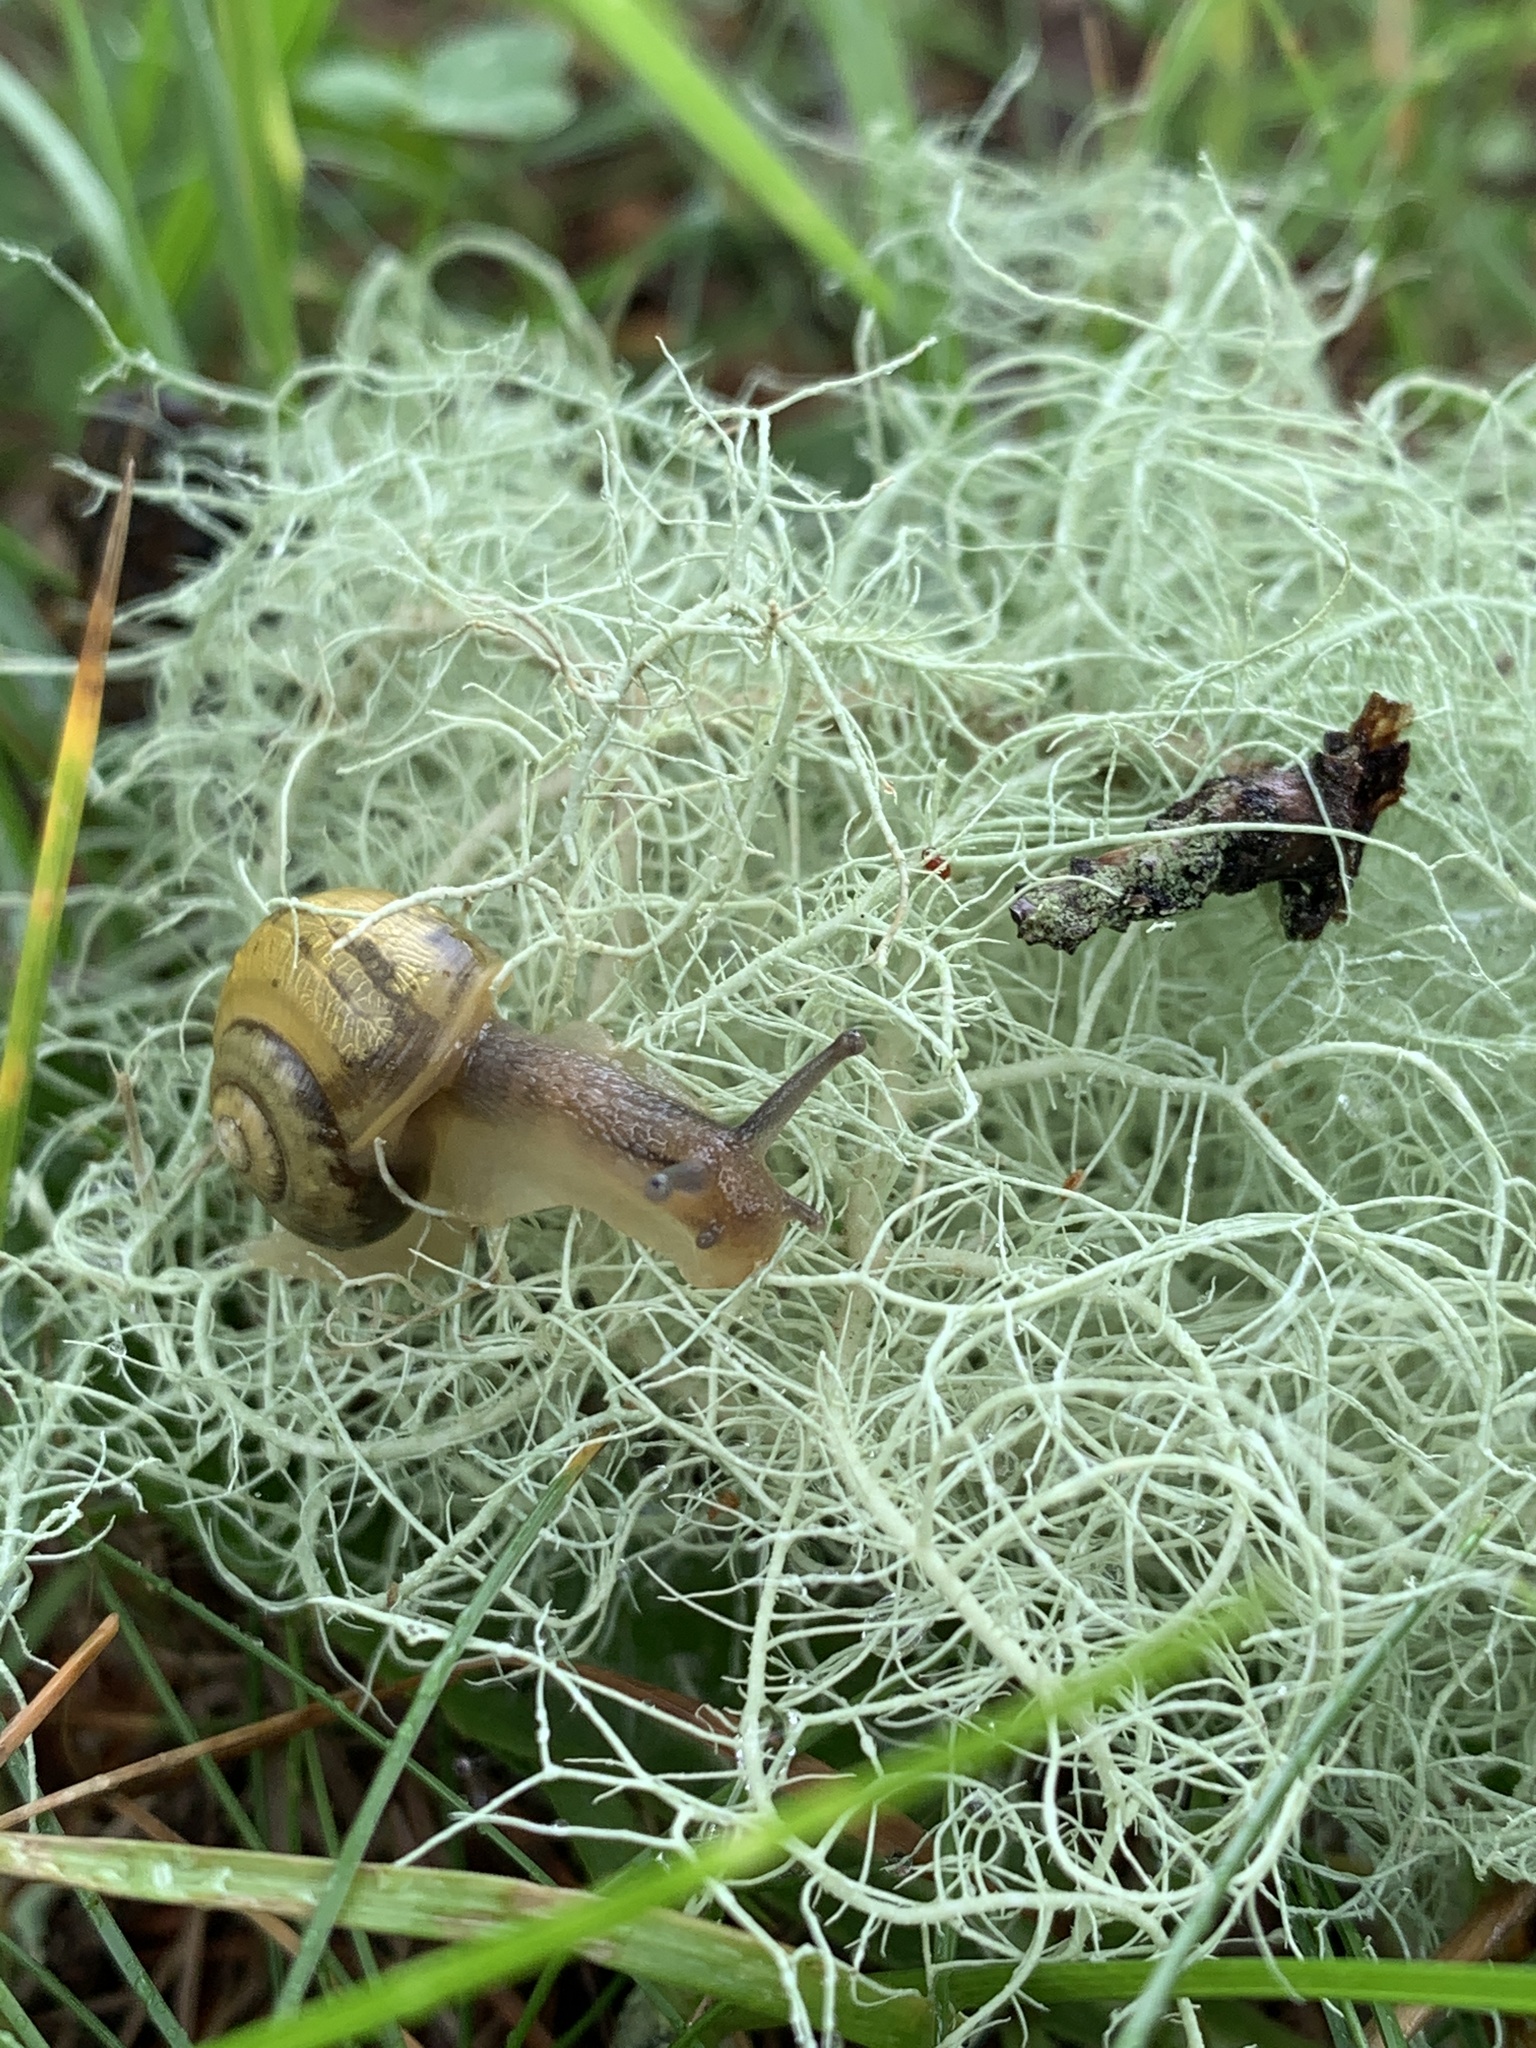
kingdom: Animalia
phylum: Mollusca
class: Gastropoda
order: Stylommatophora
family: Helicidae
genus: Cepaea
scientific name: Cepaea
